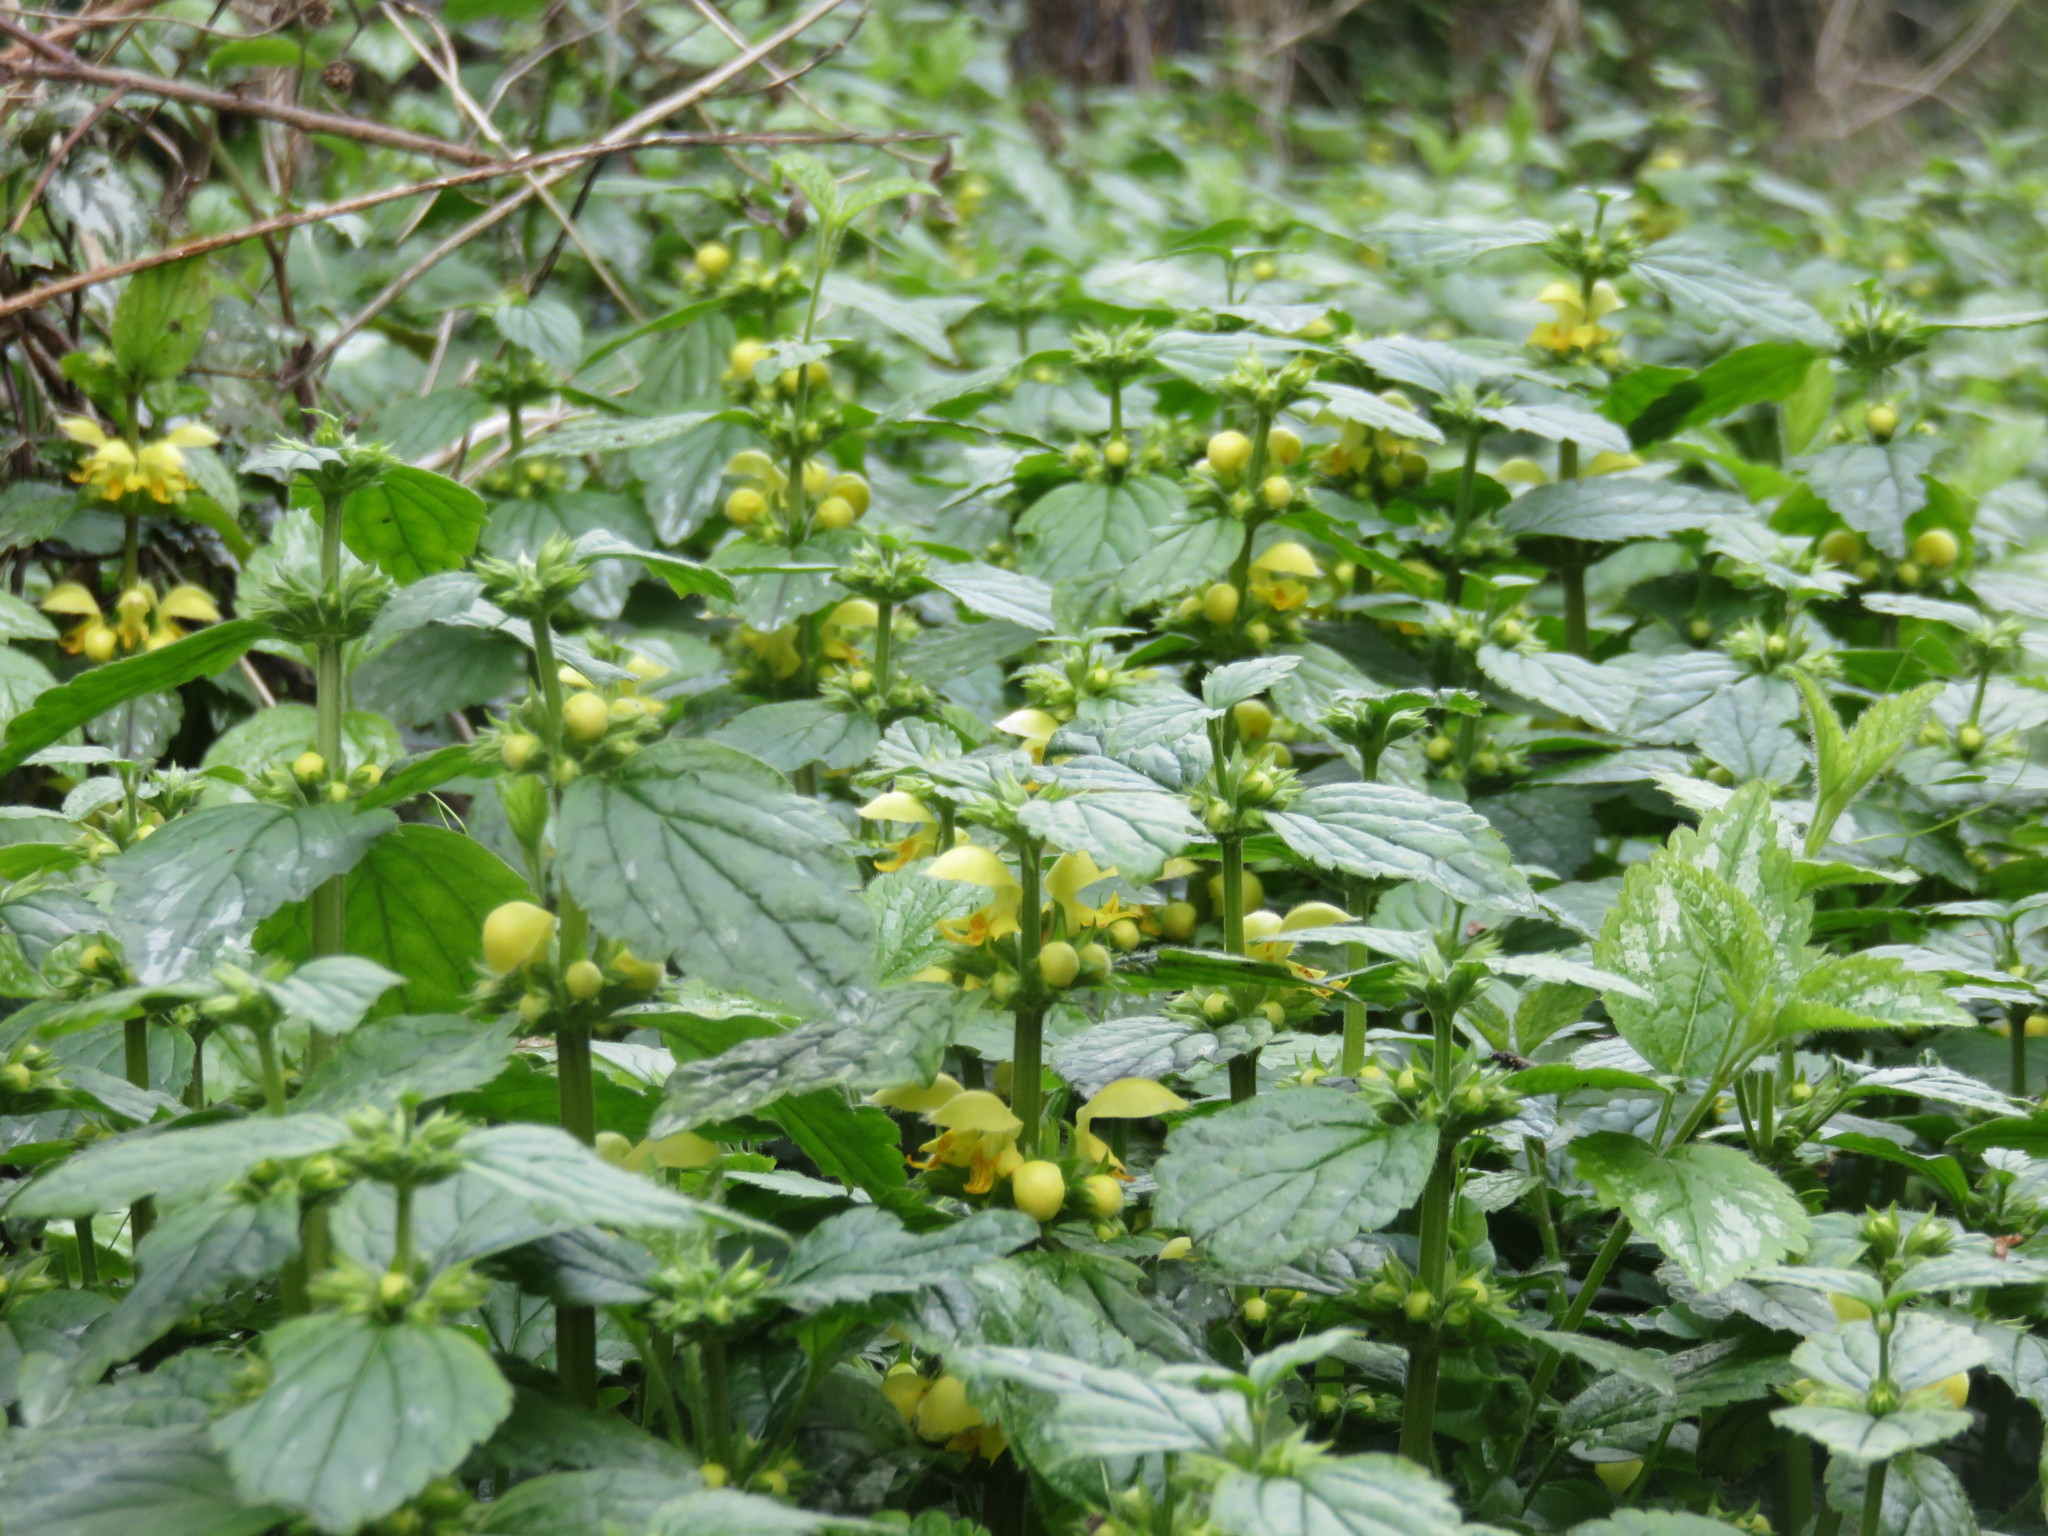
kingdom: Plantae
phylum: Tracheophyta
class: Magnoliopsida
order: Lamiales
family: Lamiaceae
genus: Lamium
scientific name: Lamium galeobdolon
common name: Yellow archangel
